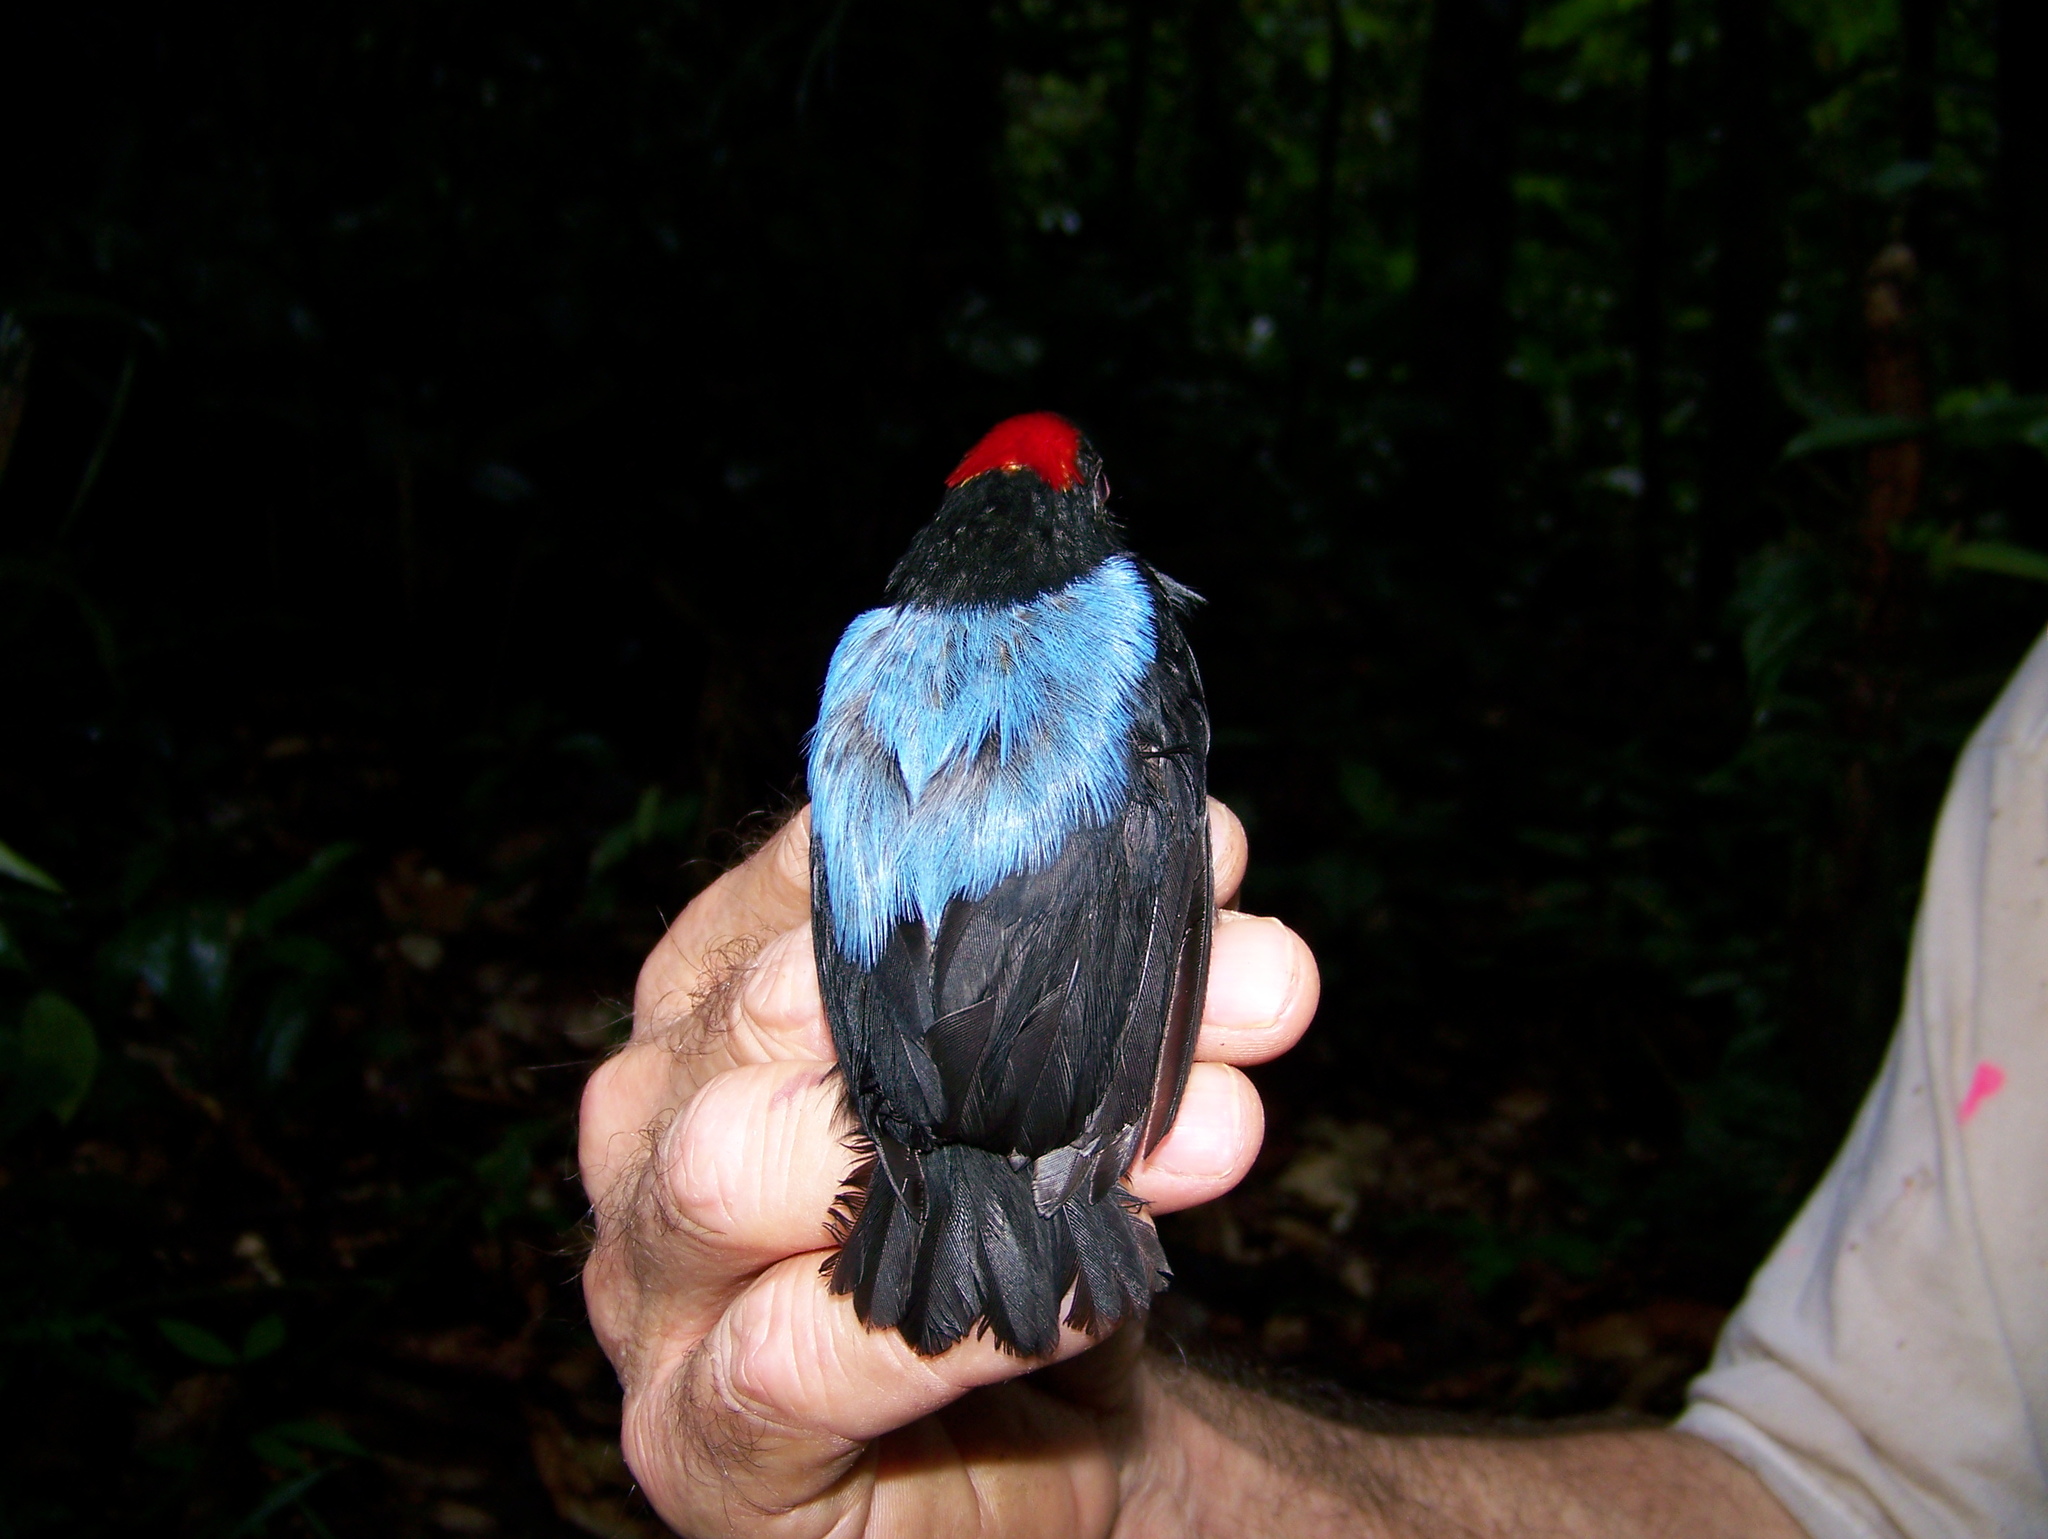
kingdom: Animalia
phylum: Chordata
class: Aves
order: Passeriformes
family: Pipridae
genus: Chiroxiphia
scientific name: Chiroxiphia pareola
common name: Blue-backed manakin
